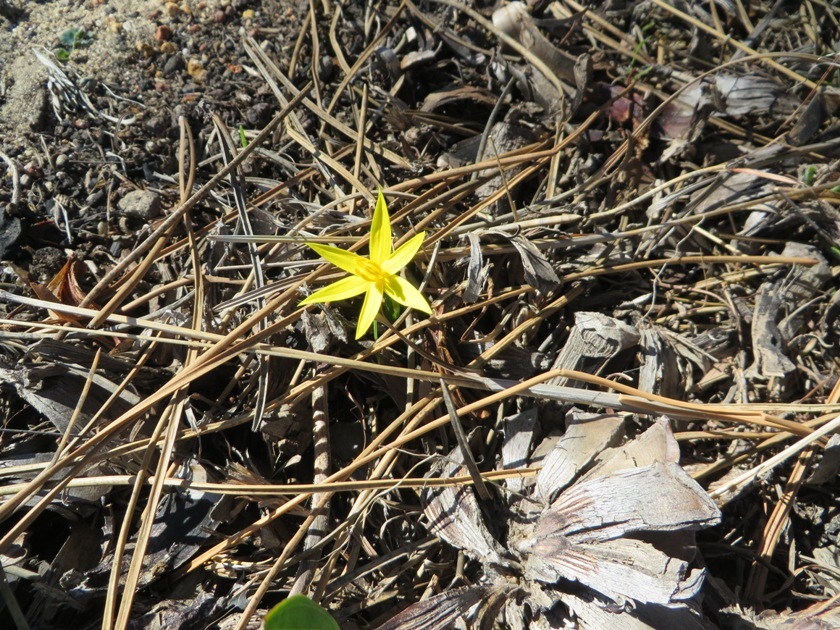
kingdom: Plantae
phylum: Tracheophyta
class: Liliopsida
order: Asparagales
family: Hypoxidaceae
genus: Empodium
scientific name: Empodium plicatum
